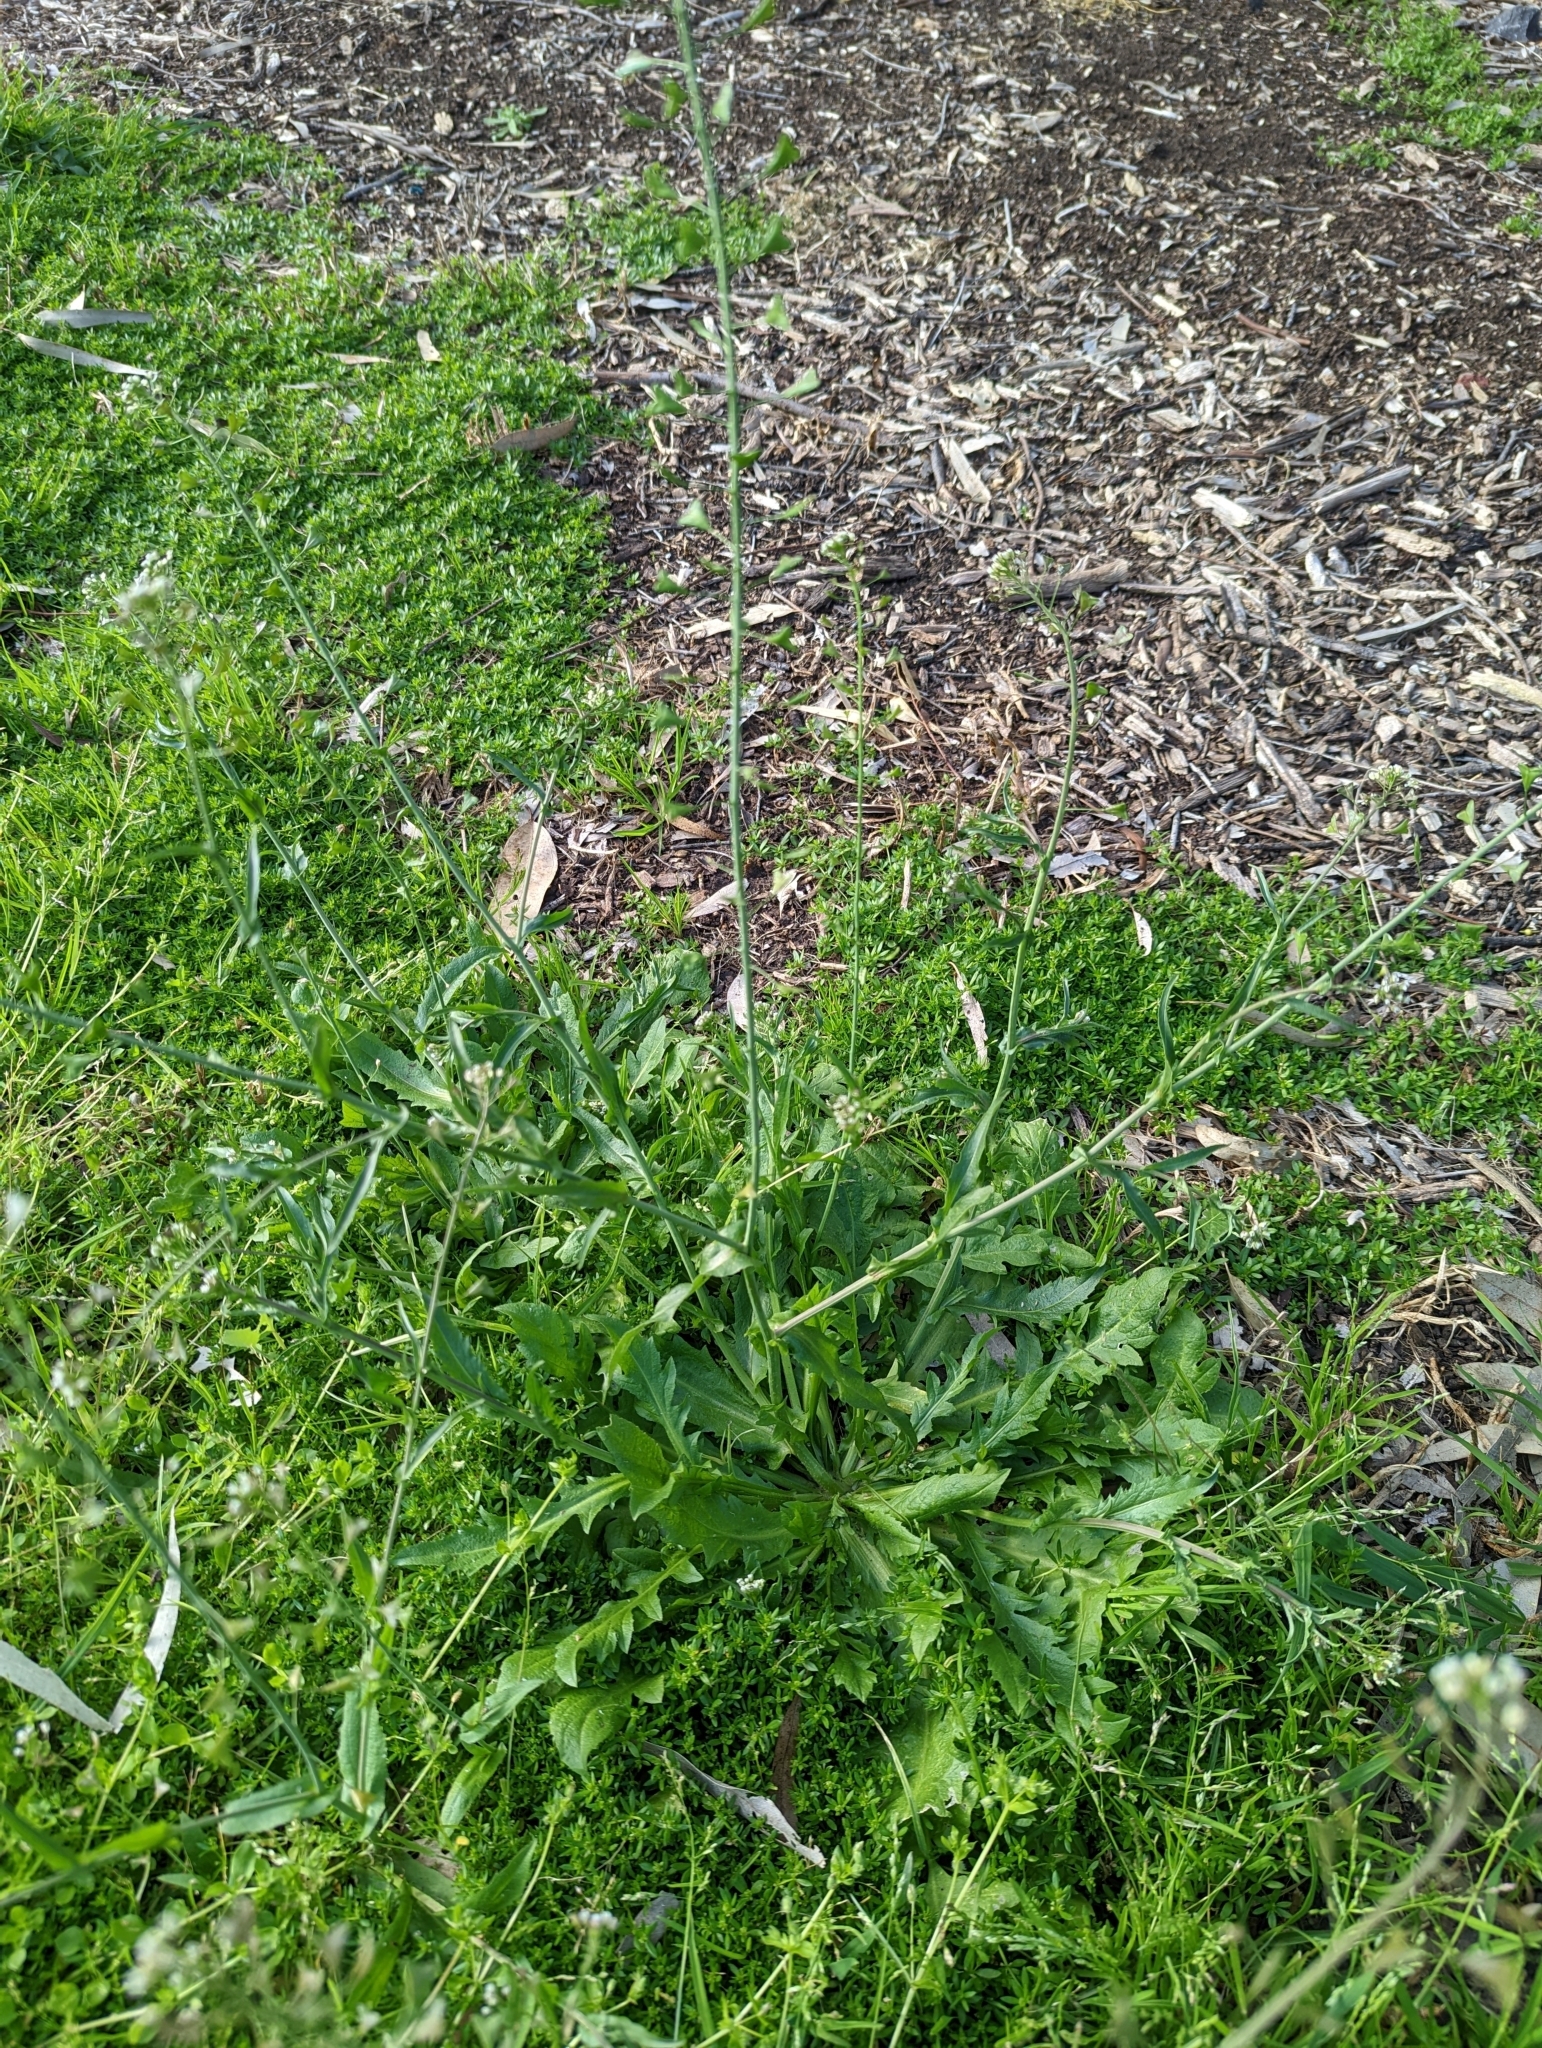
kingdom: Plantae
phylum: Tracheophyta
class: Magnoliopsida
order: Brassicales
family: Brassicaceae
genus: Capsella
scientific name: Capsella bursa-pastoris
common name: Shepherd's purse
